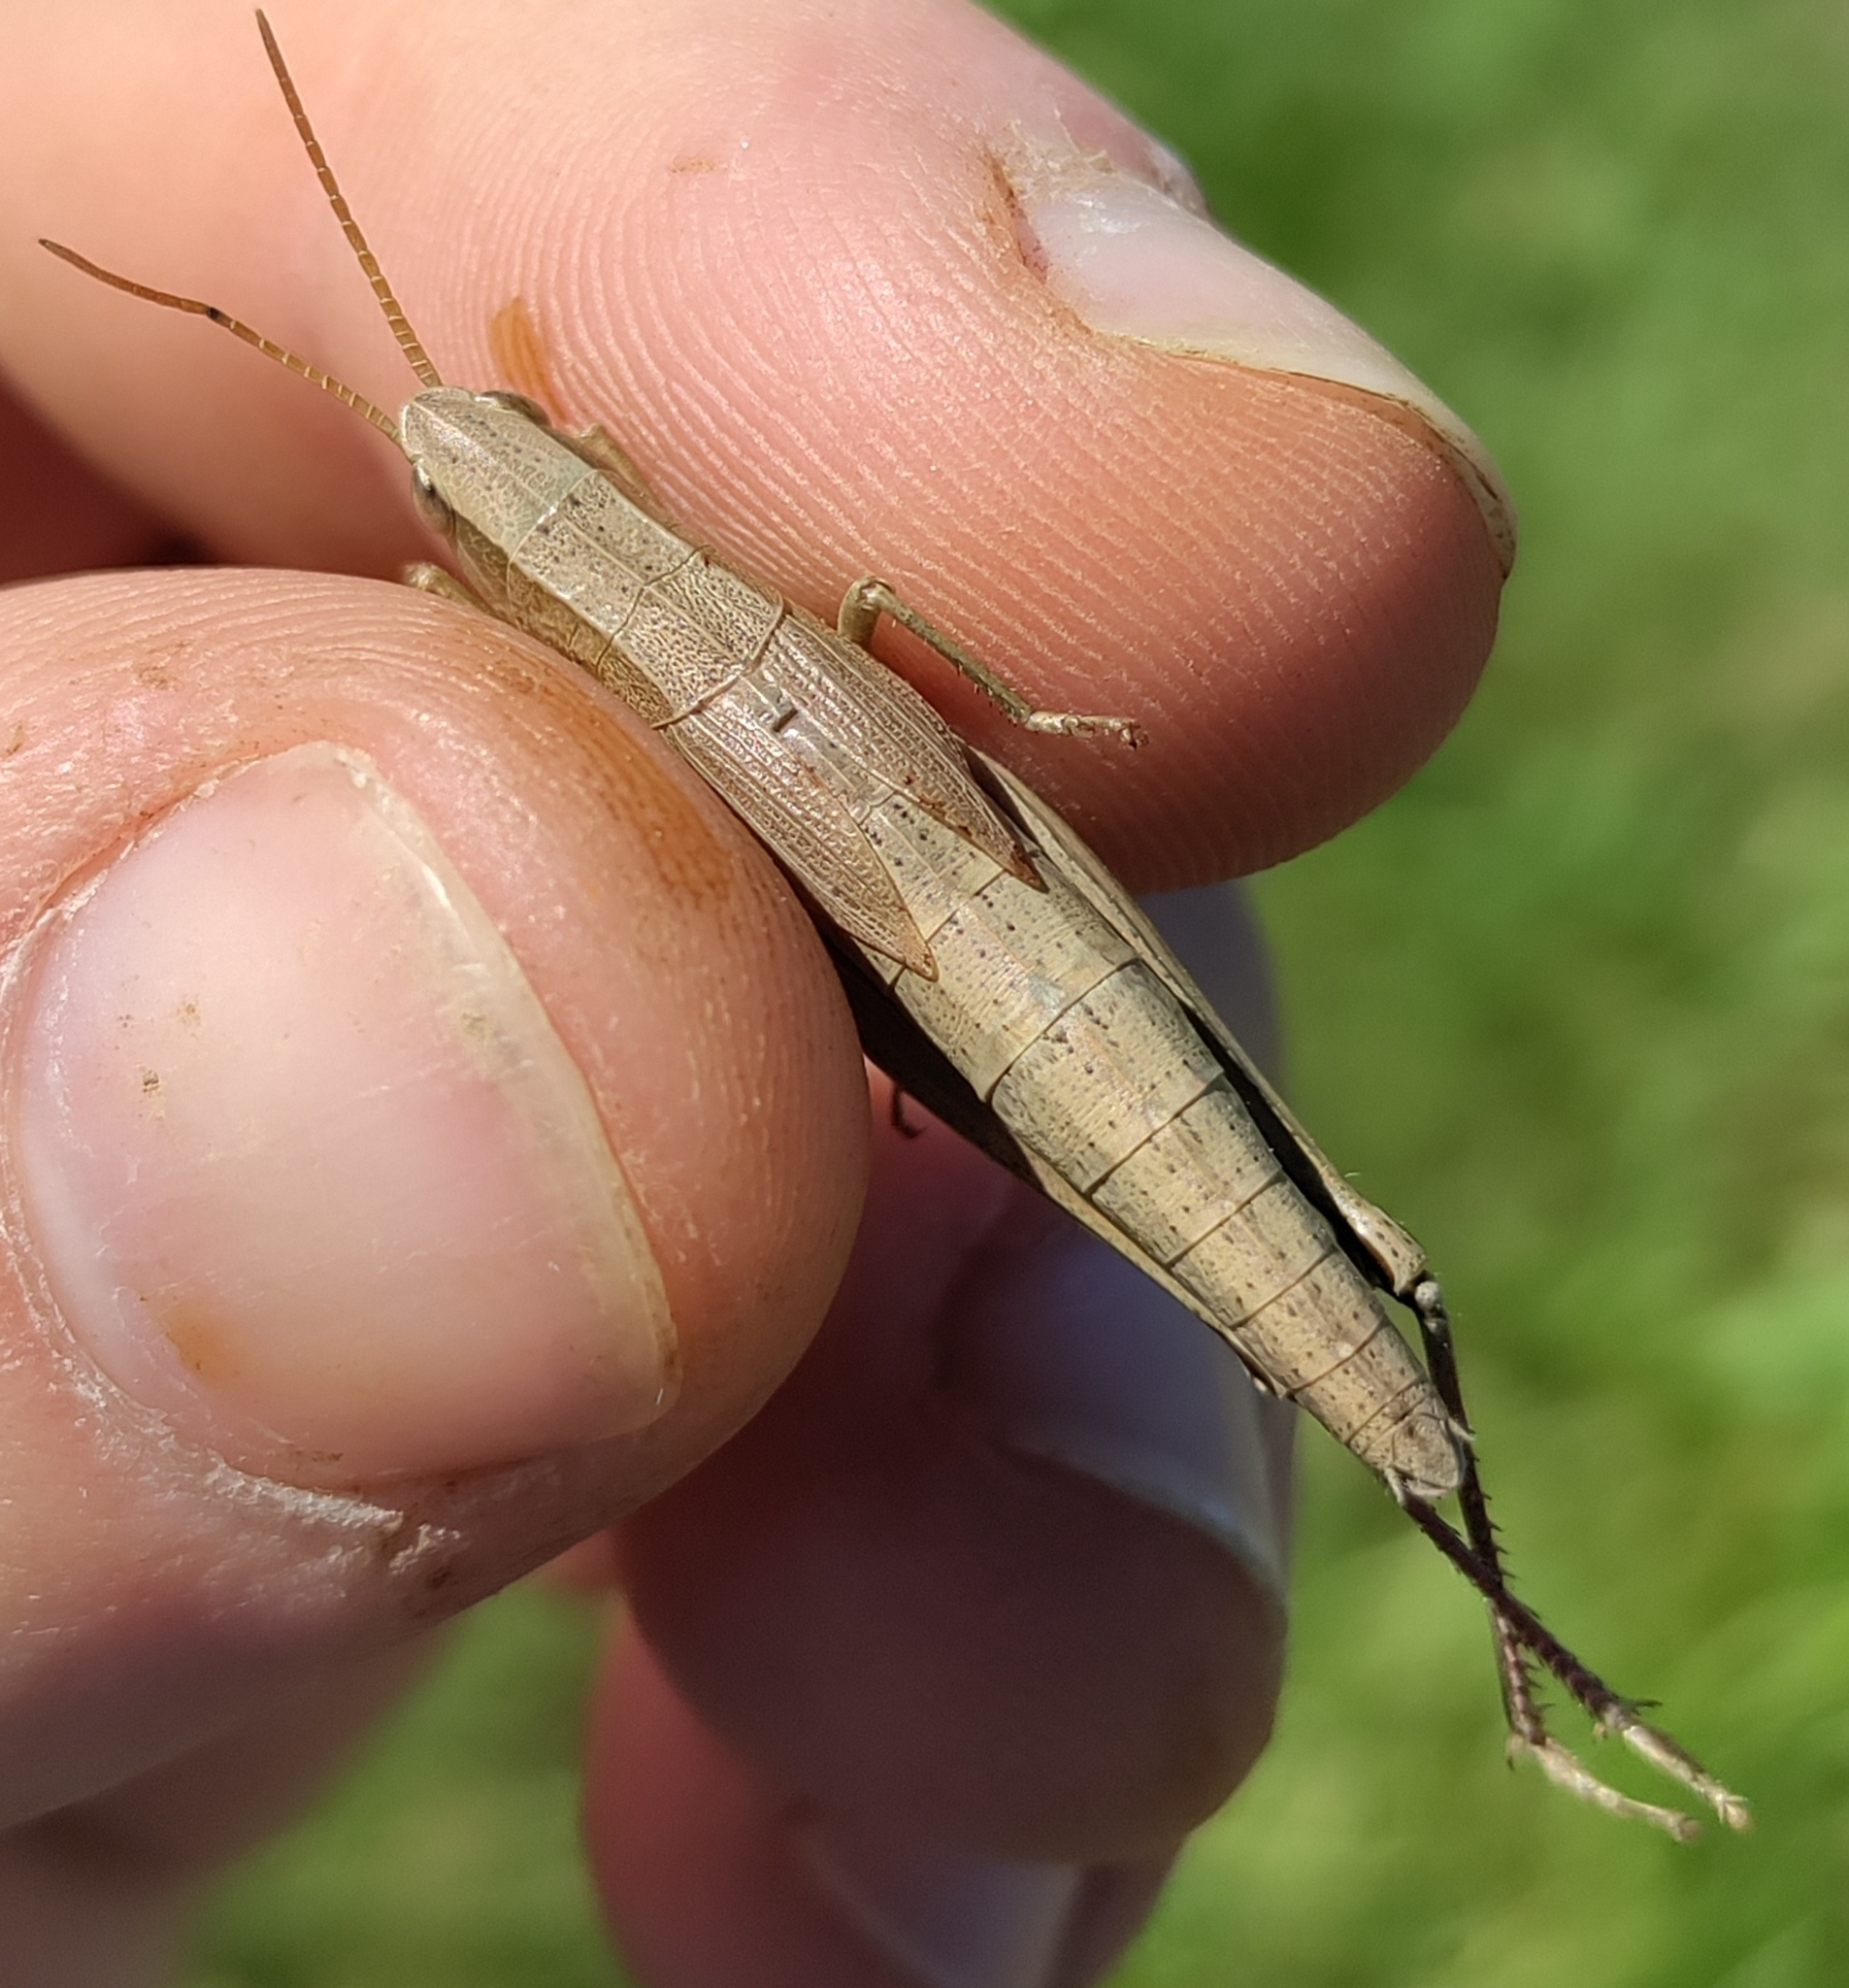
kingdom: Animalia
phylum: Arthropoda
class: Insecta
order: Orthoptera
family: Acrididae
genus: Chrysochraon
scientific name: Chrysochraon dispar
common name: Large gold grasshopper
